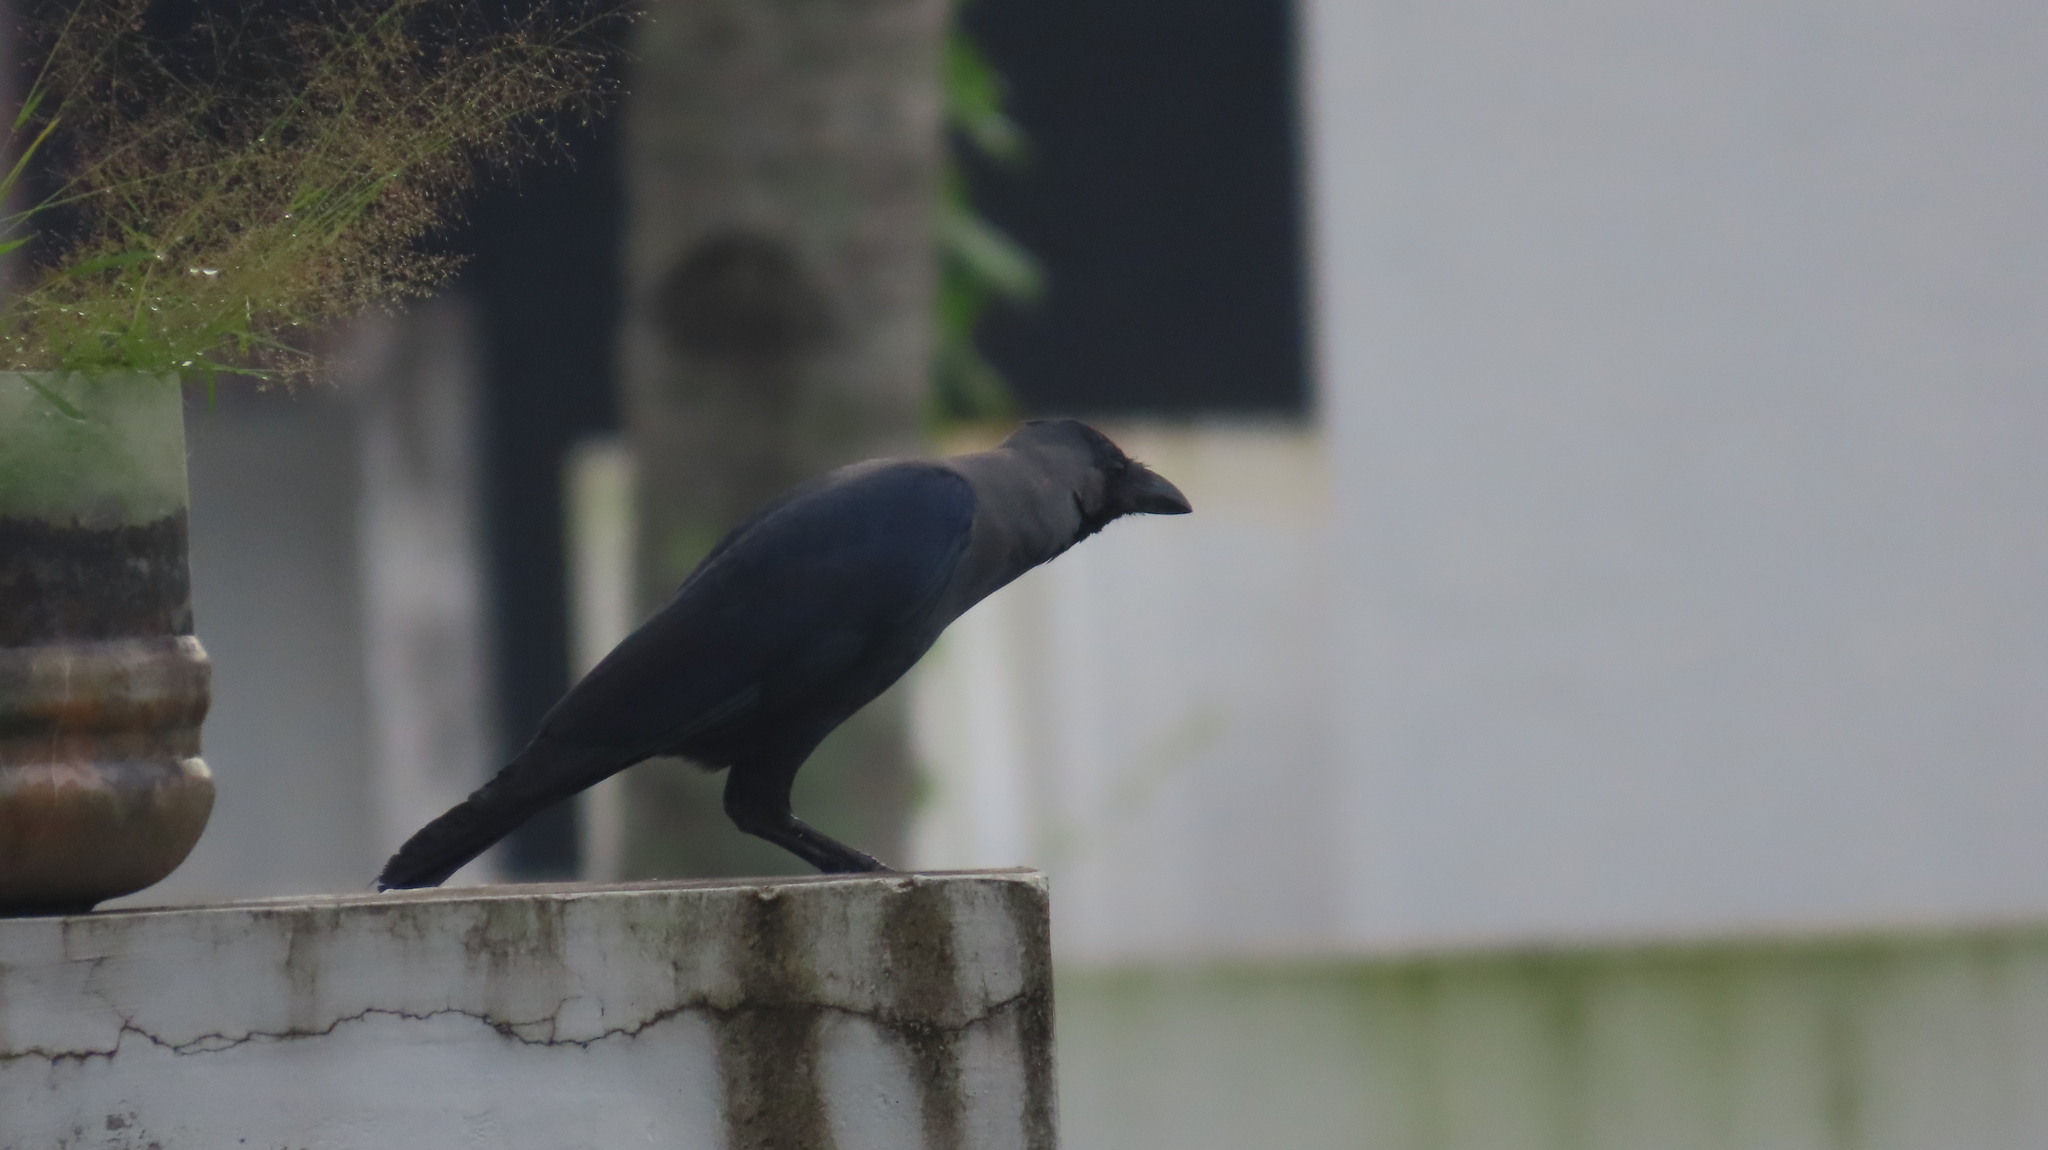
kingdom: Animalia
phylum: Chordata
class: Aves
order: Passeriformes
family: Corvidae
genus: Corvus
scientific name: Corvus splendens
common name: House crow
